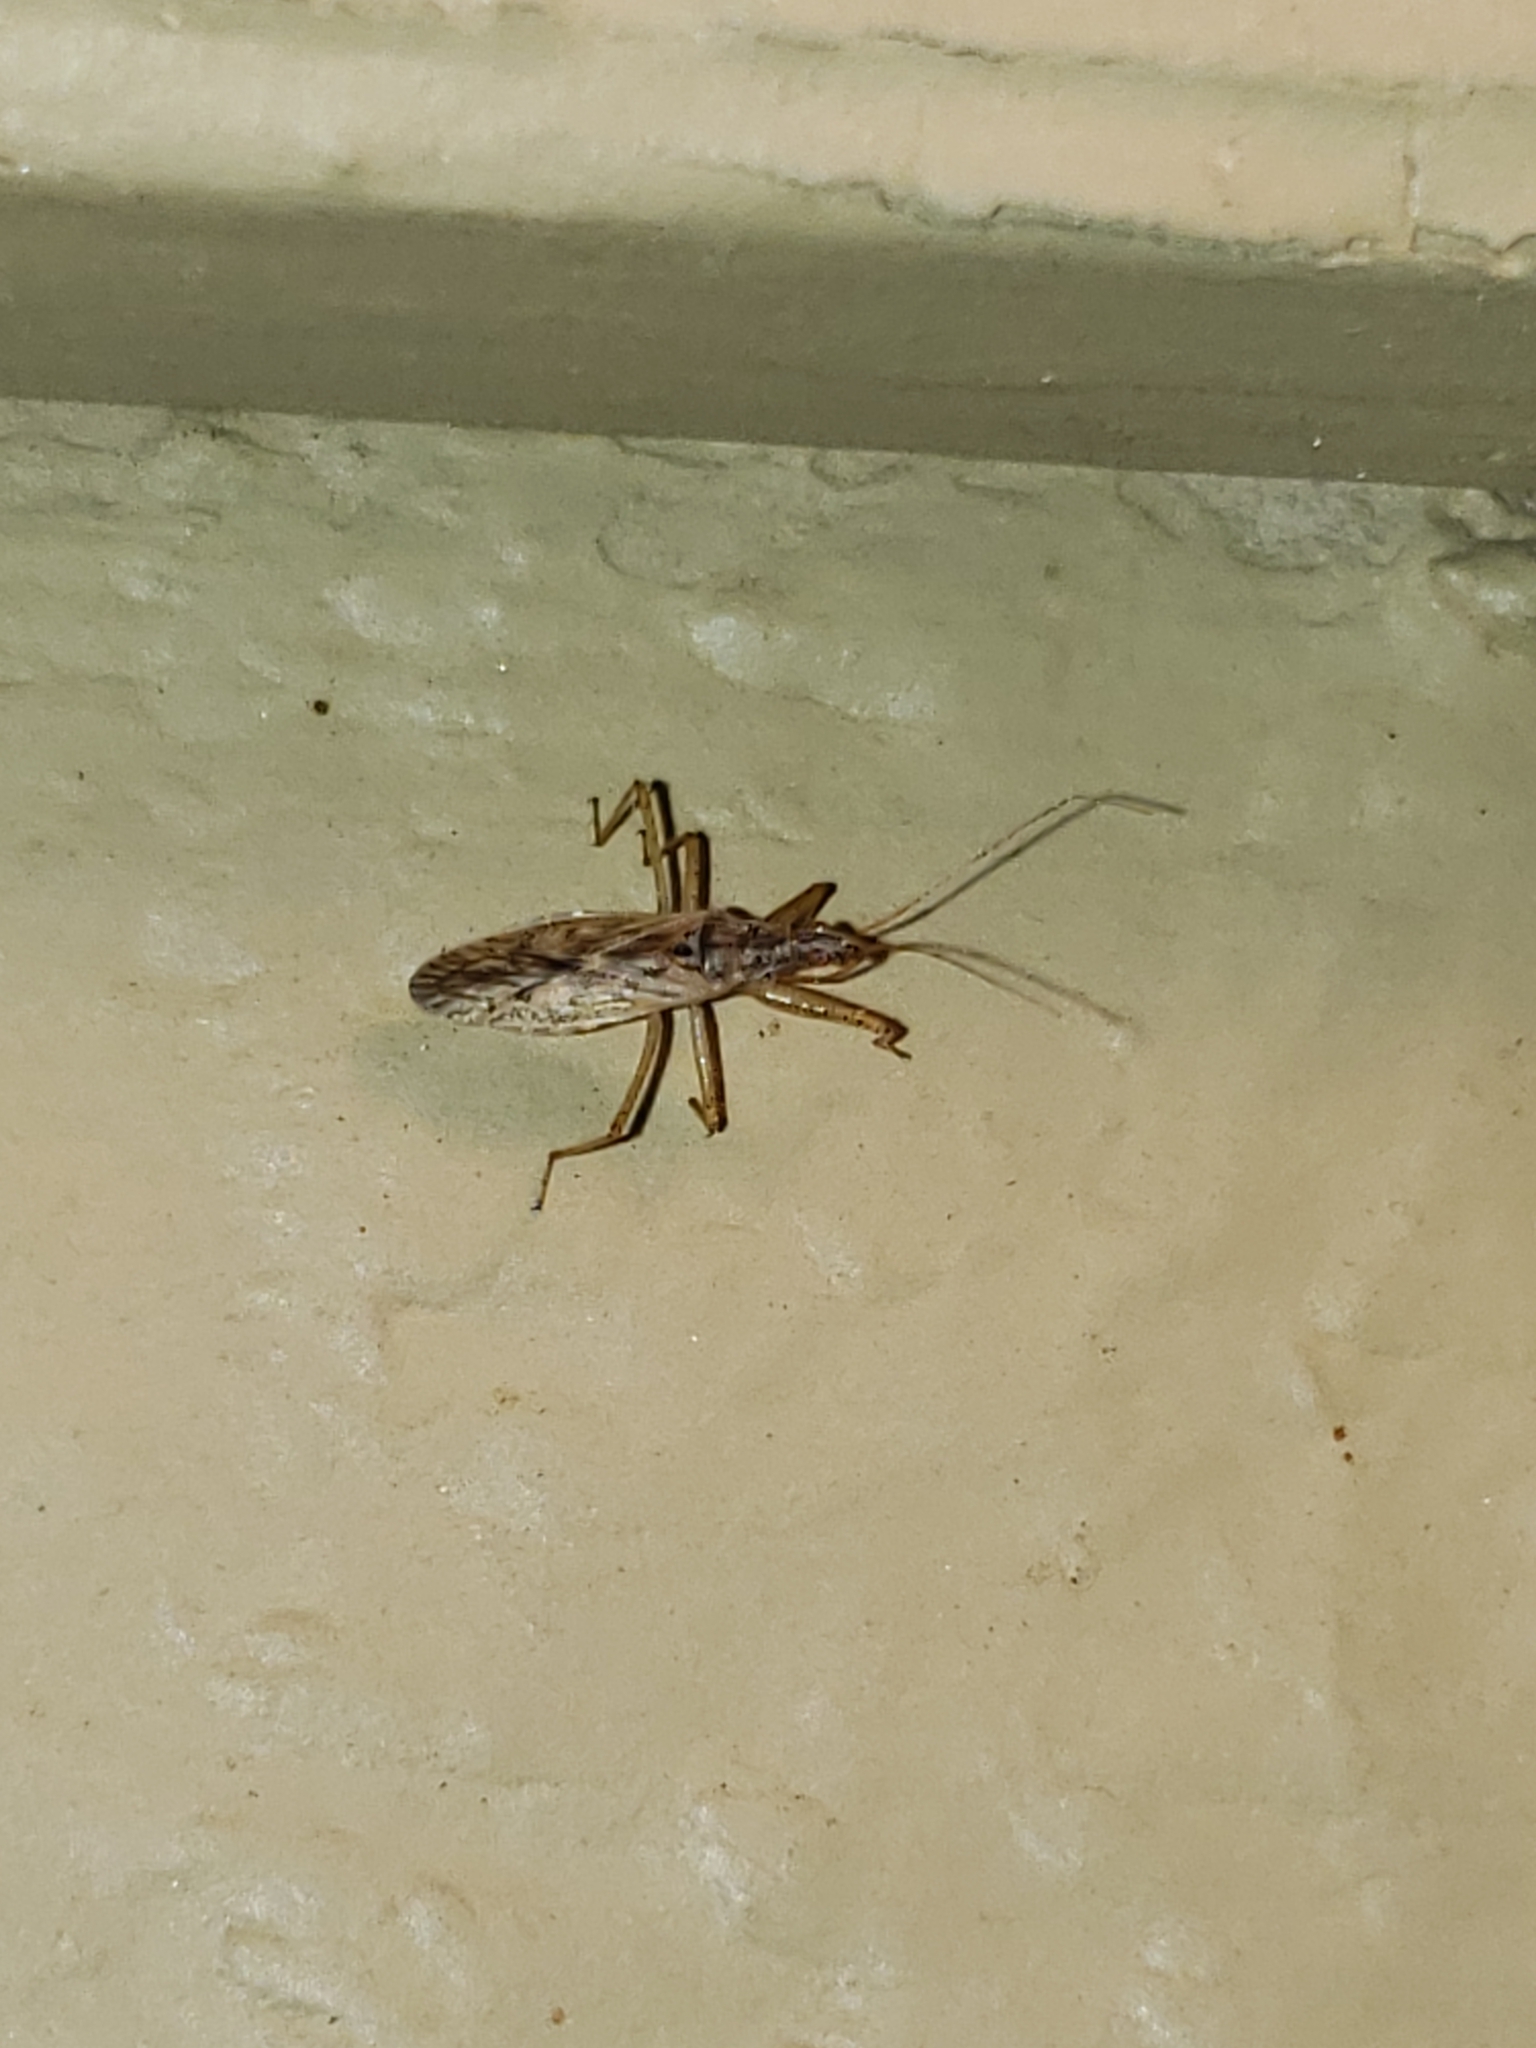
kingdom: Animalia
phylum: Arthropoda
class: Insecta
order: Hemiptera
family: Nabidae
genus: Nabis
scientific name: Nabis roseipennis
